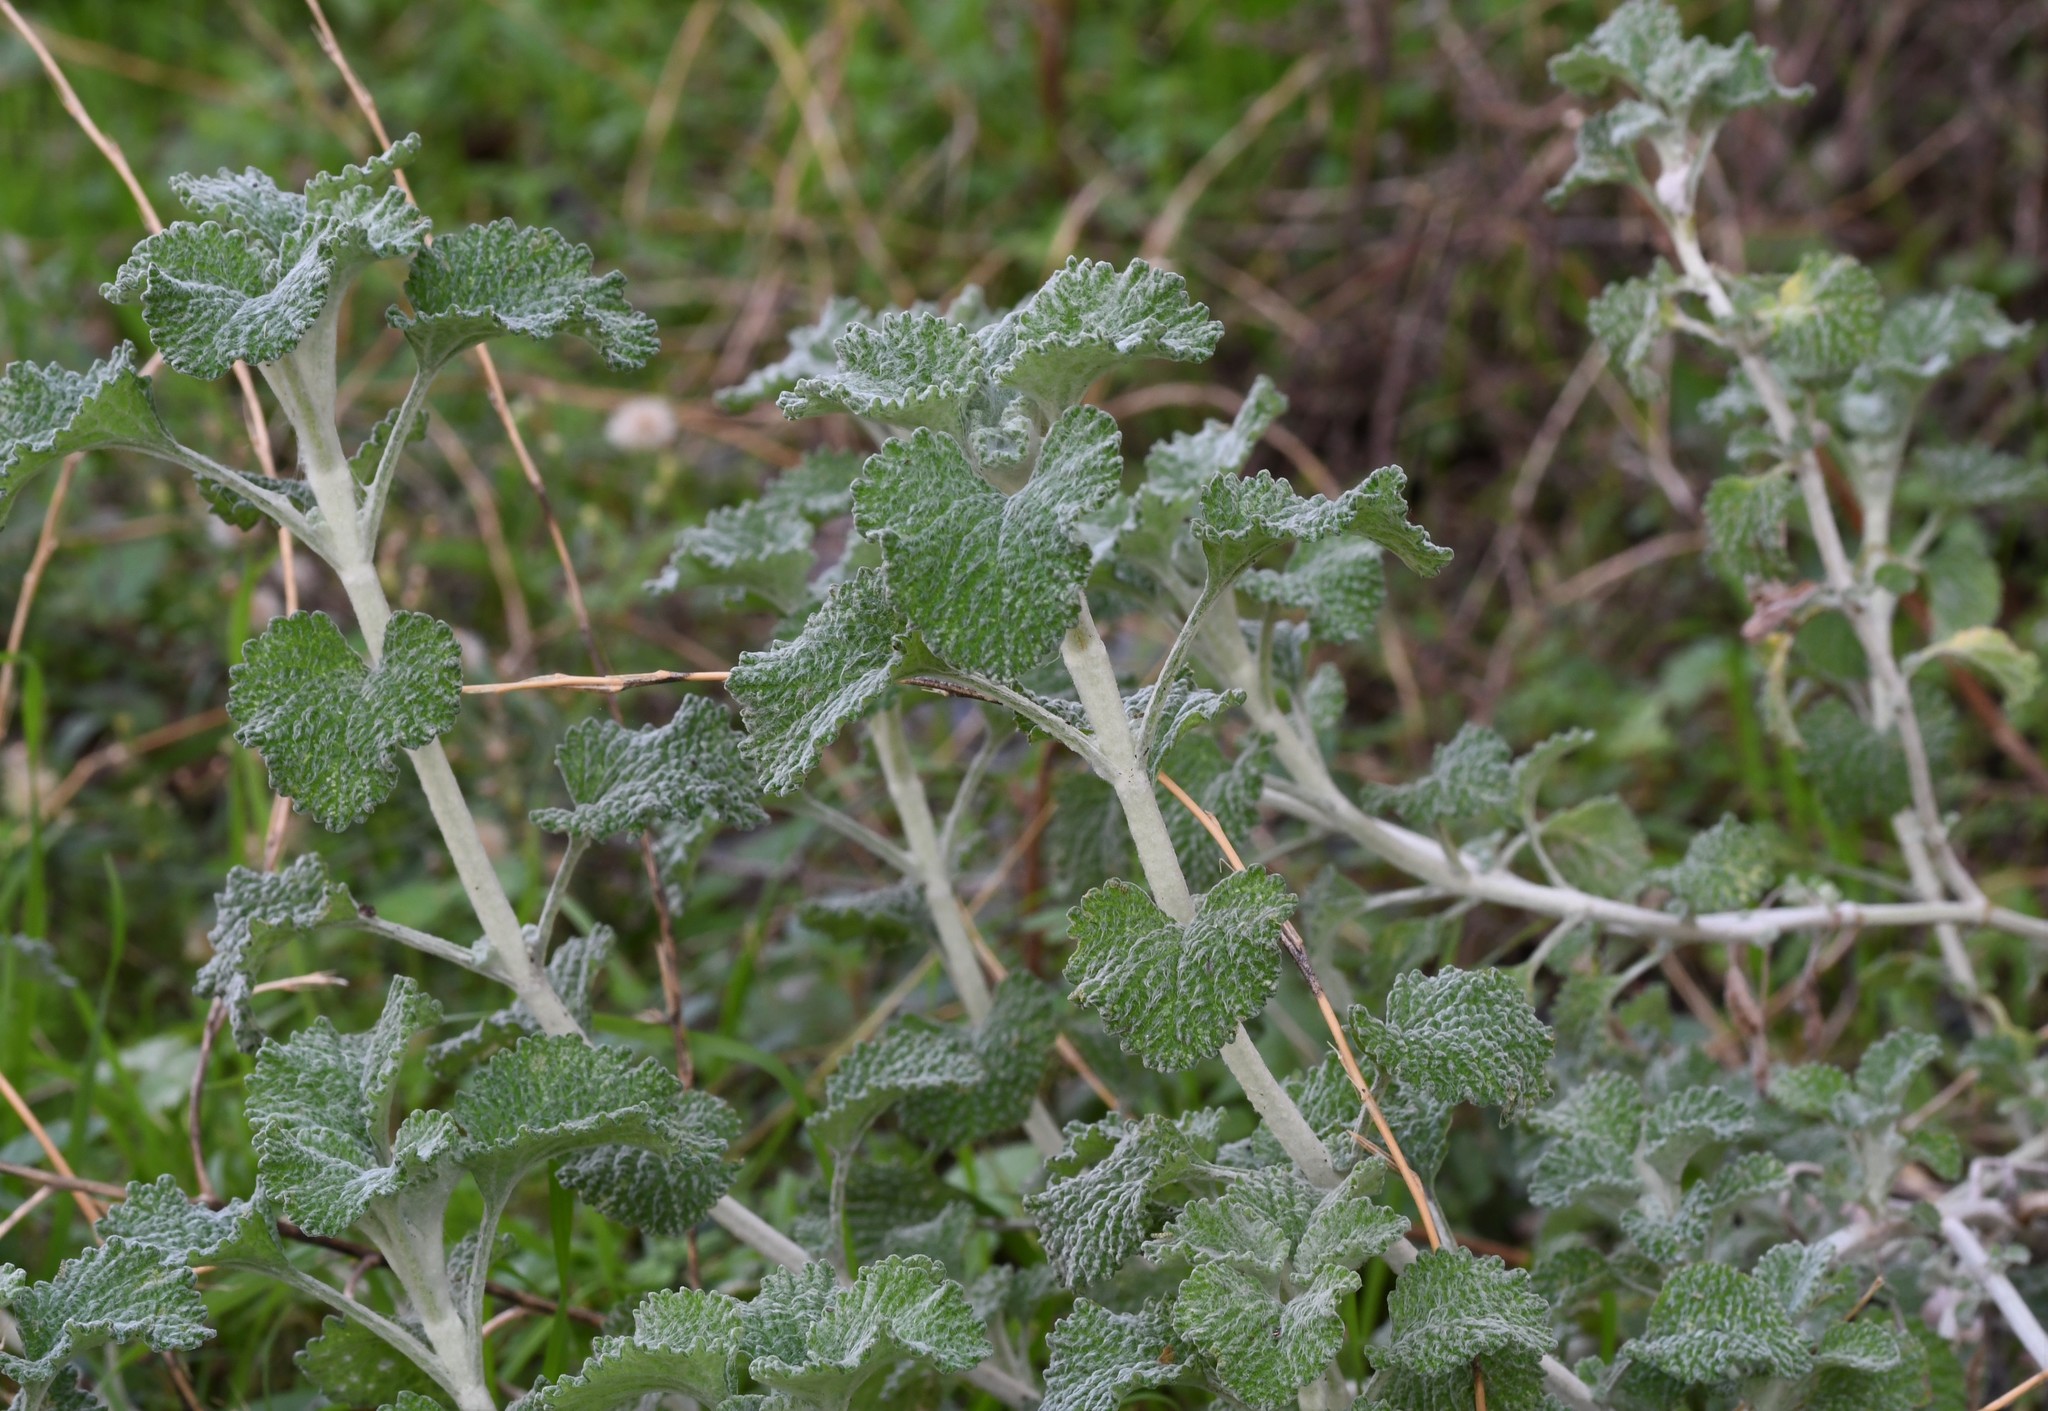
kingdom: Plantae
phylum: Tracheophyta
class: Magnoliopsida
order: Lamiales
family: Lamiaceae
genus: Marrubium
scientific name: Marrubium vulgare
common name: Horehound
